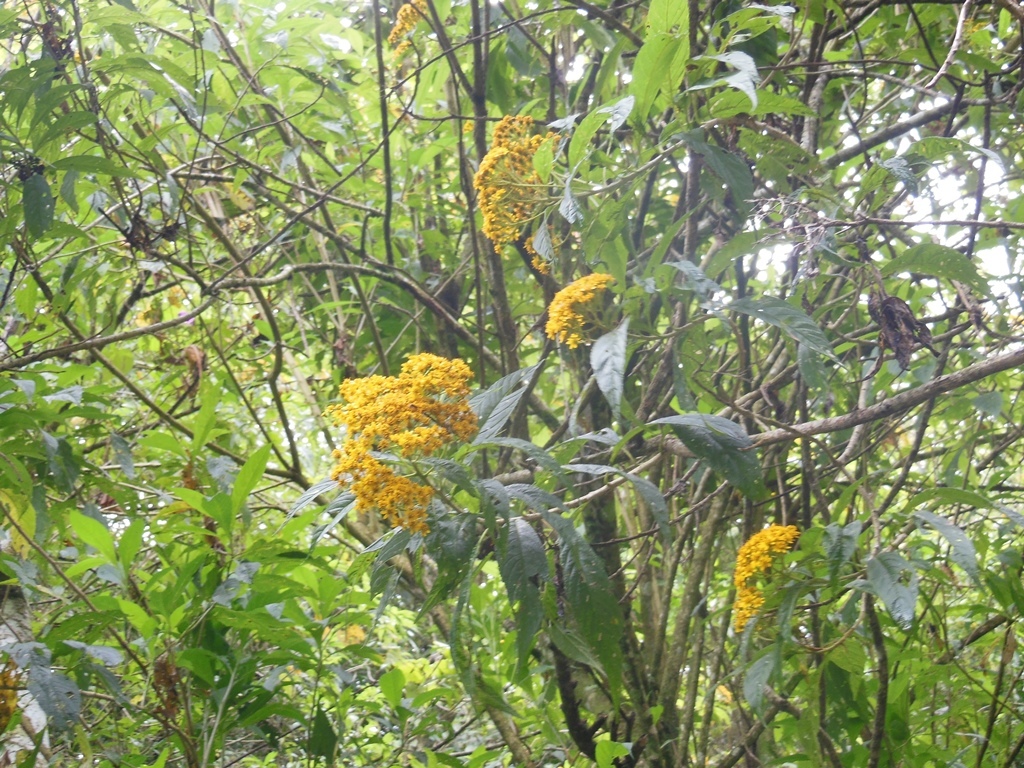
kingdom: Plantae
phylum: Tracheophyta
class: Magnoliopsida
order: Asterales
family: Asteraceae
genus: Verbesina
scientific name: Verbesina hypargyrea
